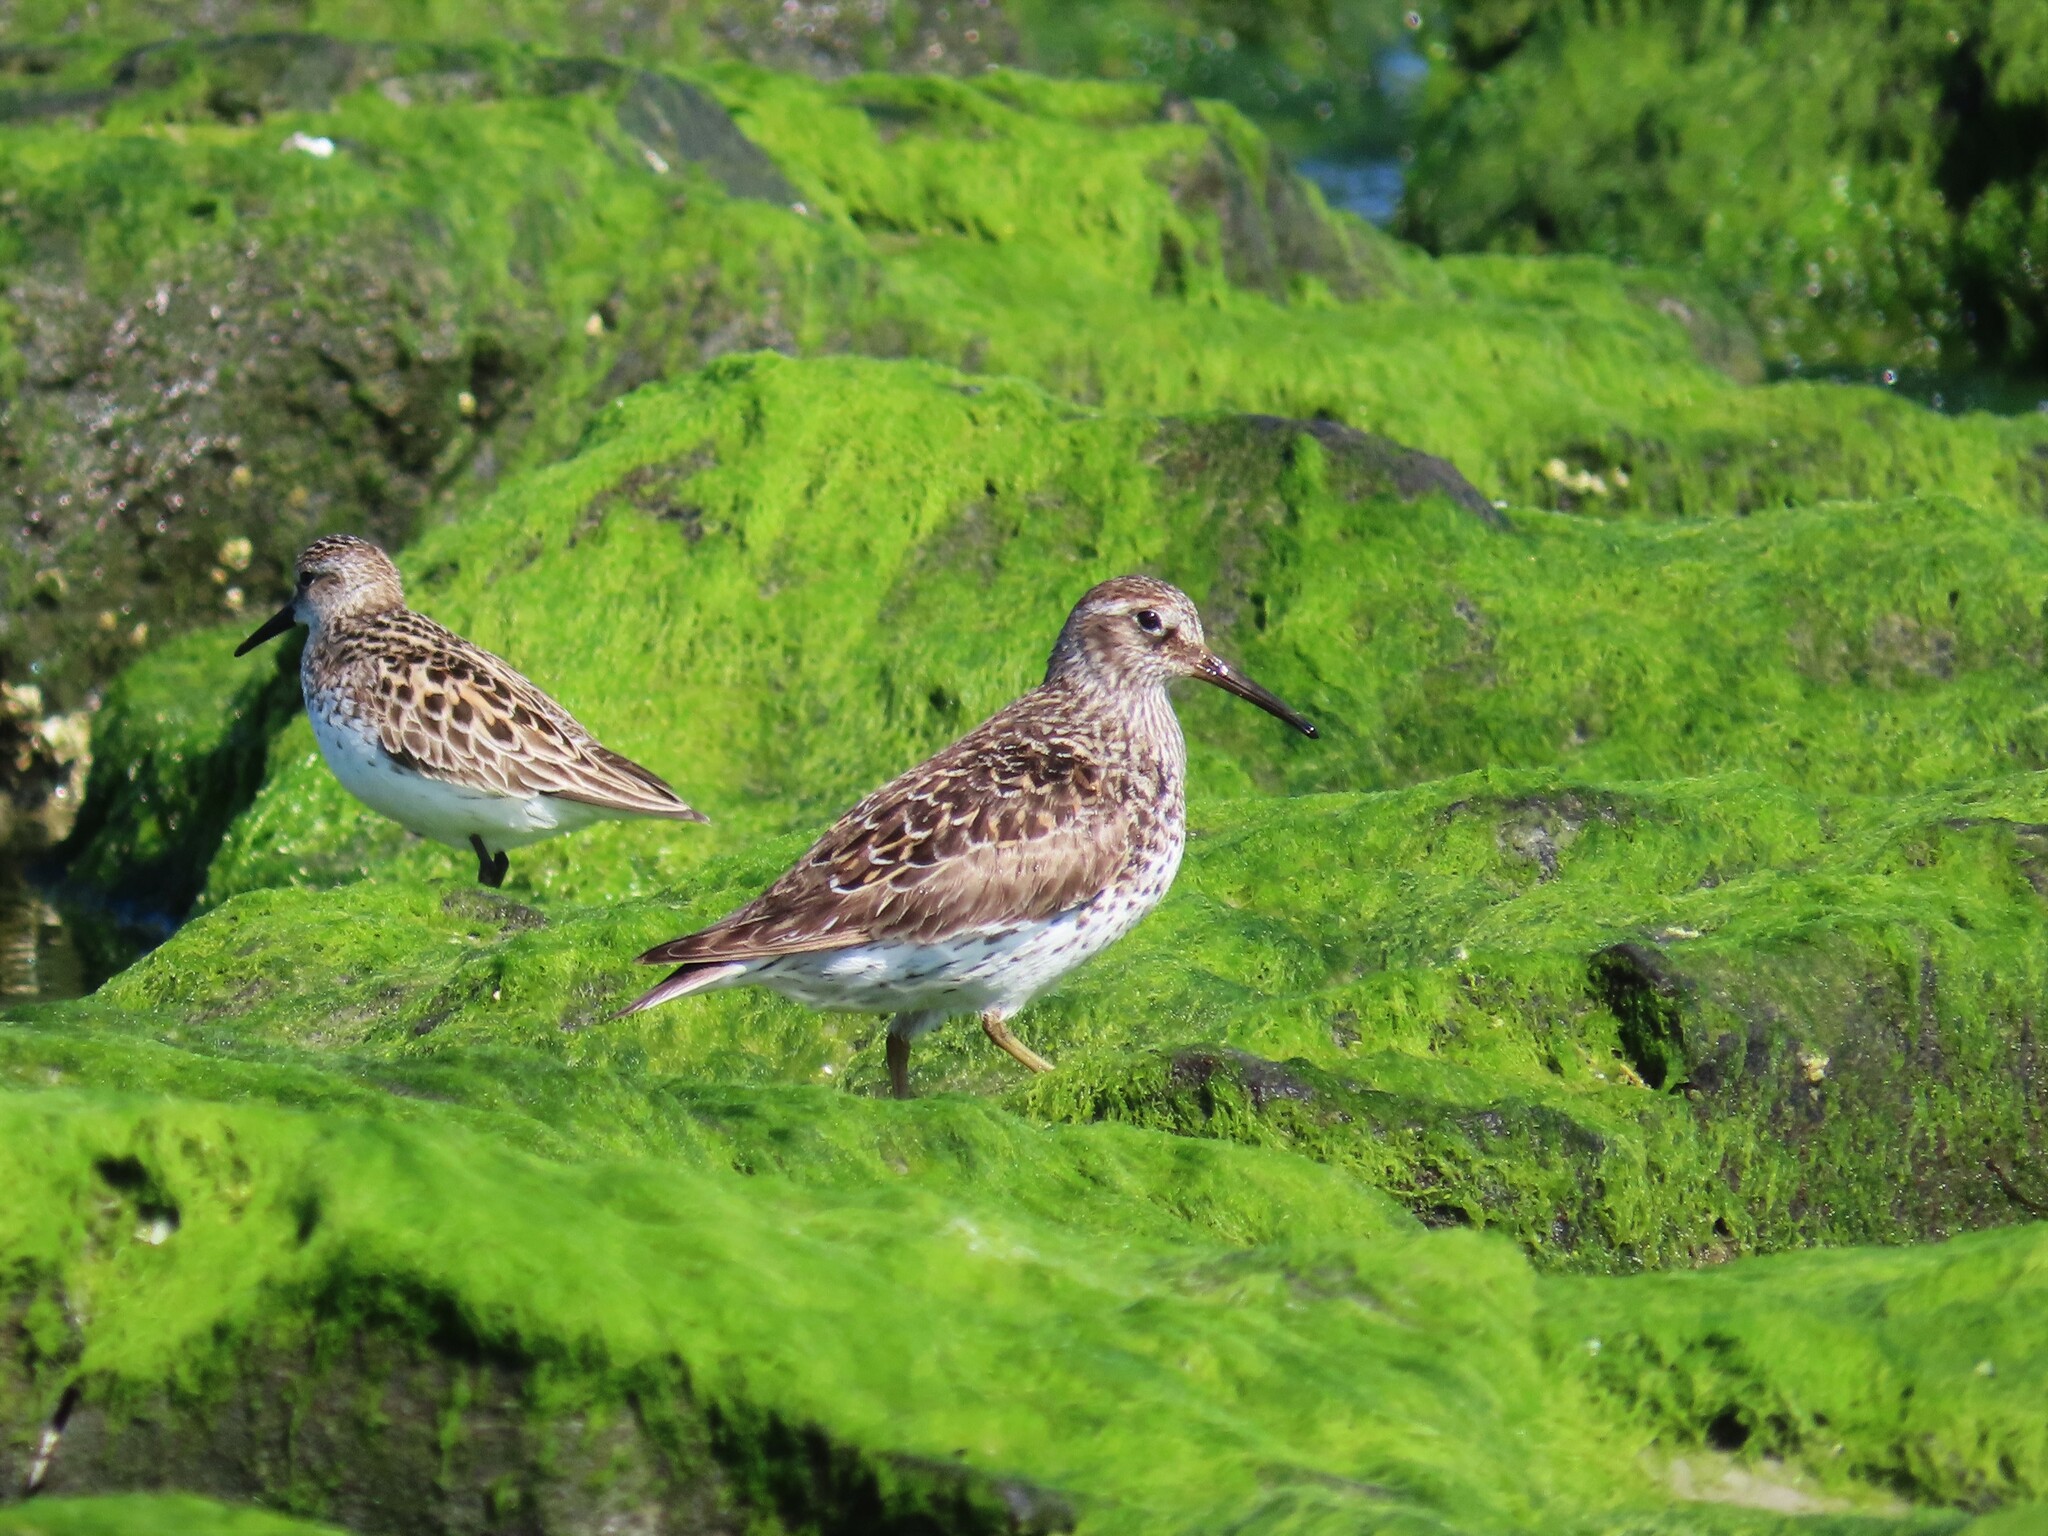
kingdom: Animalia
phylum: Chordata
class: Aves
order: Charadriiformes
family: Scolopacidae
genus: Calidris
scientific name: Calidris maritima
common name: Purple sandpiper
